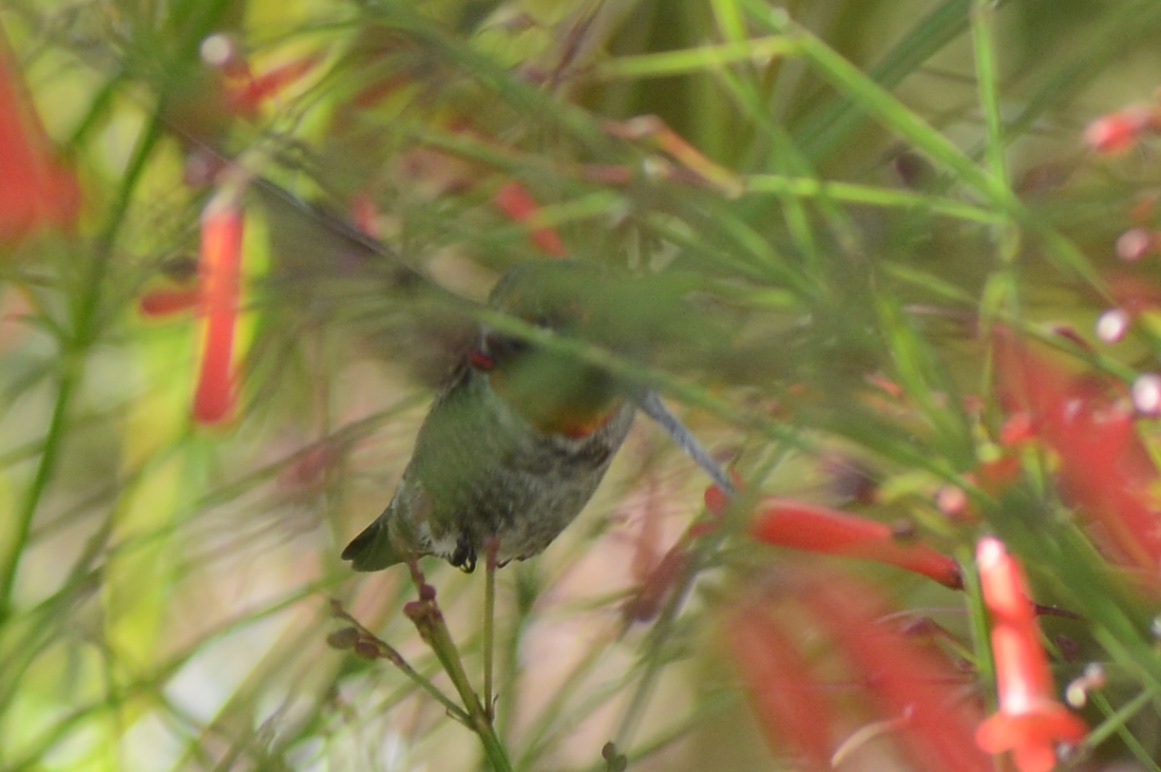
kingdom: Animalia
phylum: Chordata
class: Aves
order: Apodiformes
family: Trochilidae
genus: Calypte
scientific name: Calypte anna
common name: Anna's hummingbird
